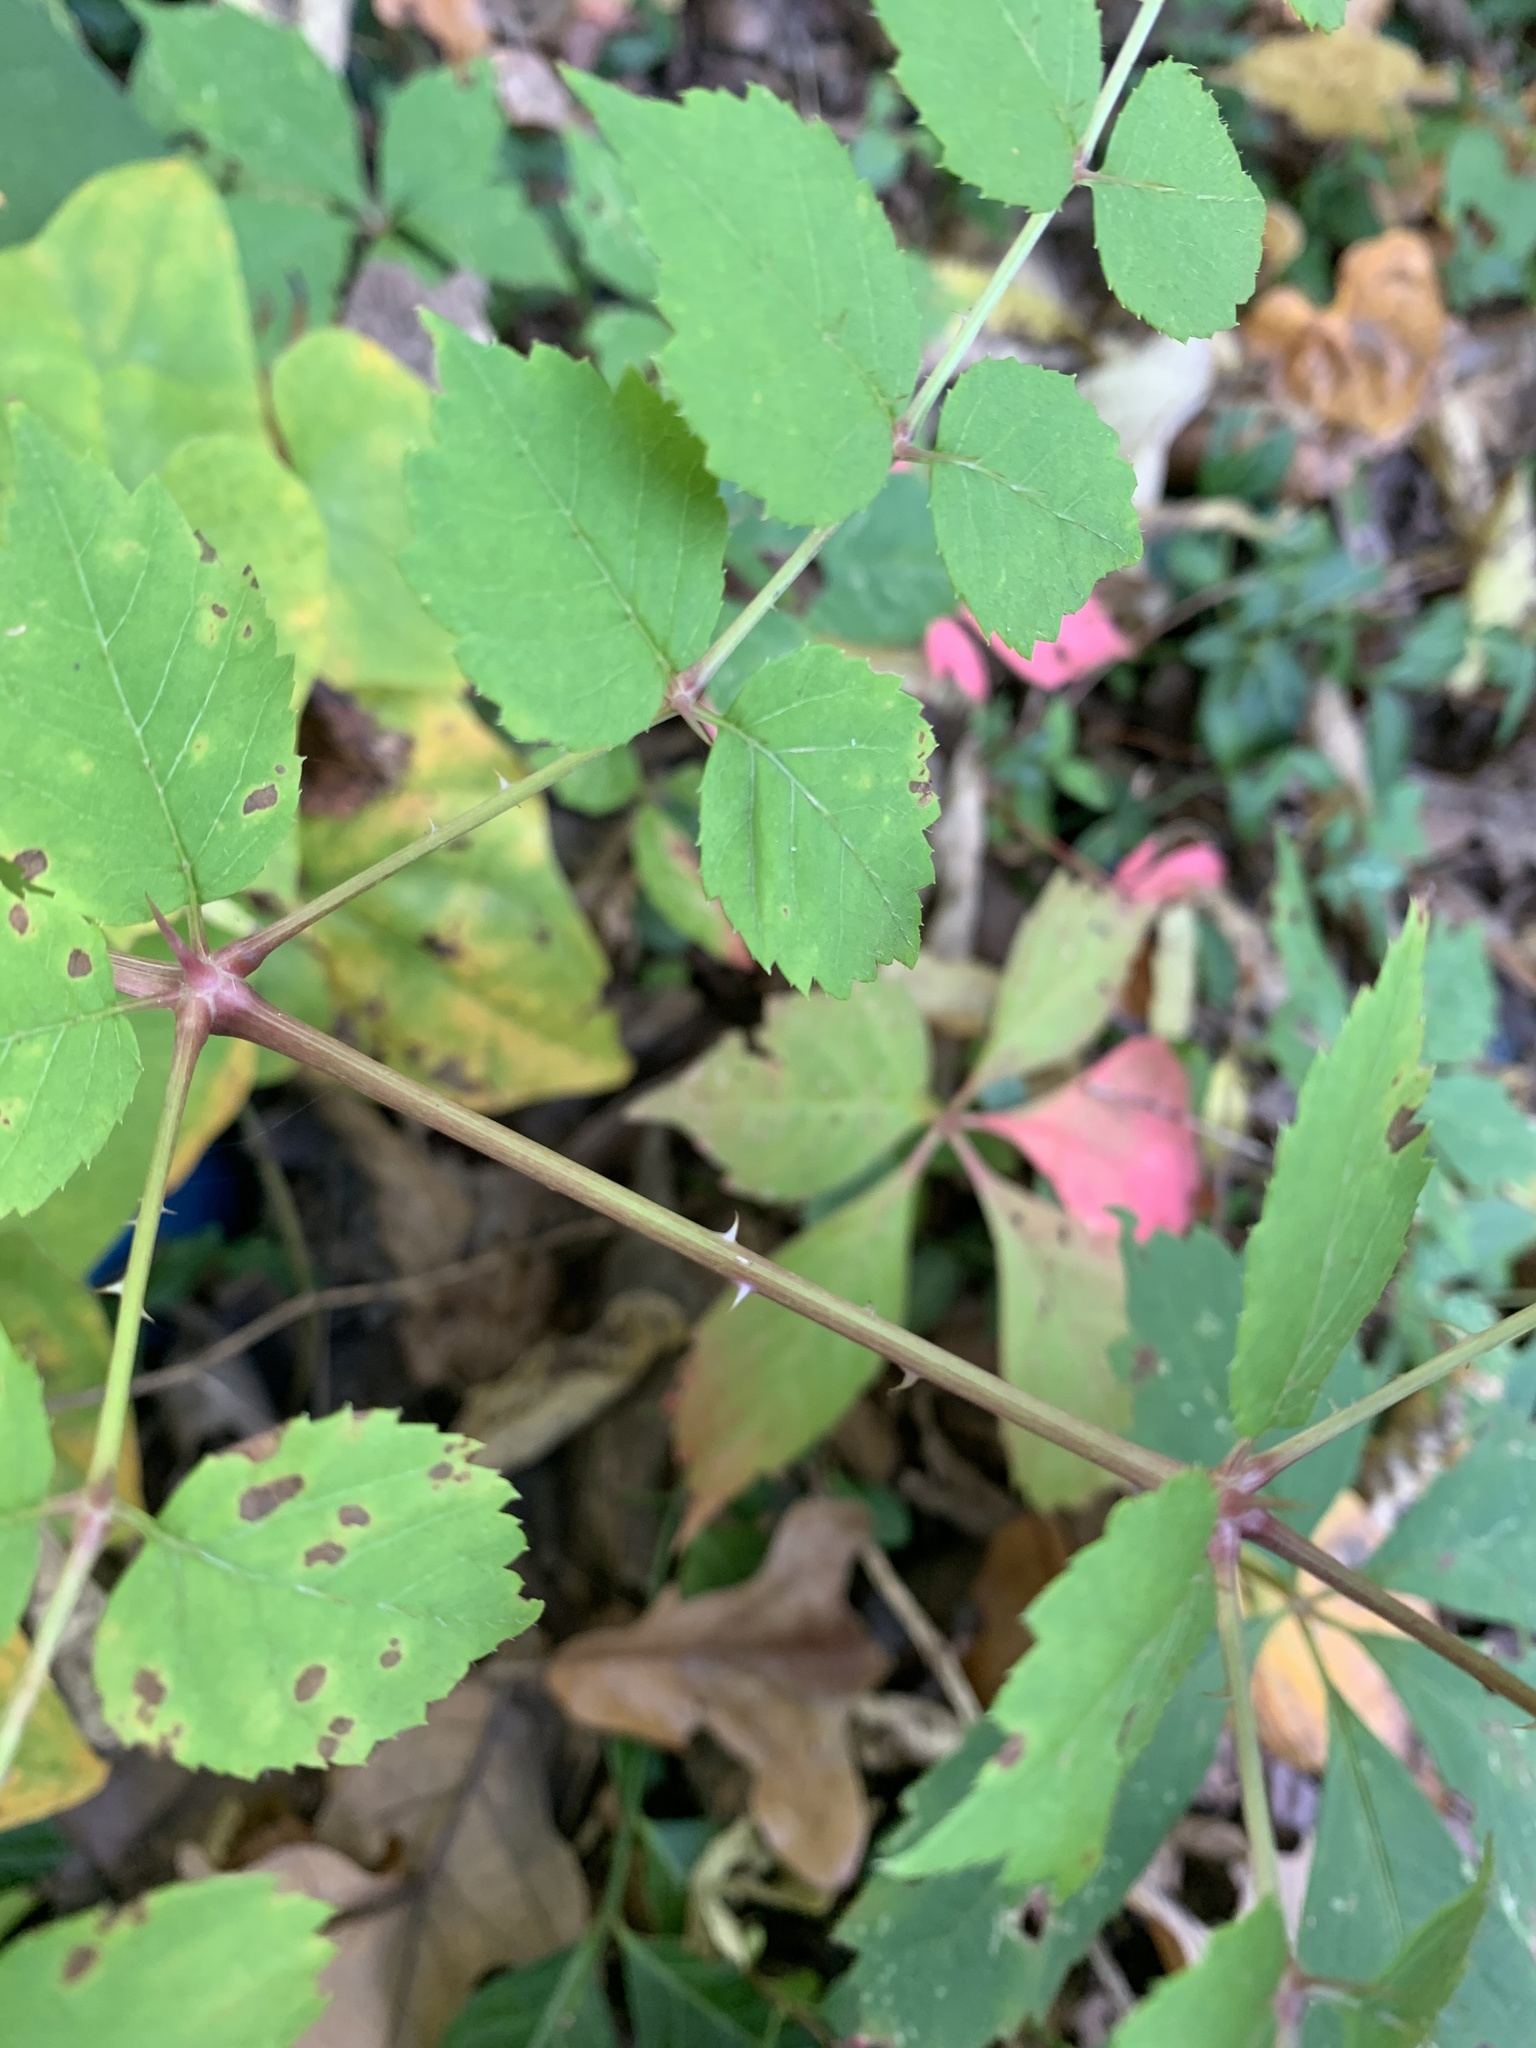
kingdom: Plantae
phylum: Tracheophyta
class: Magnoliopsida
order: Apiales
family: Araliaceae
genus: Aralia
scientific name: Aralia spinosa
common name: Hercules'-club
